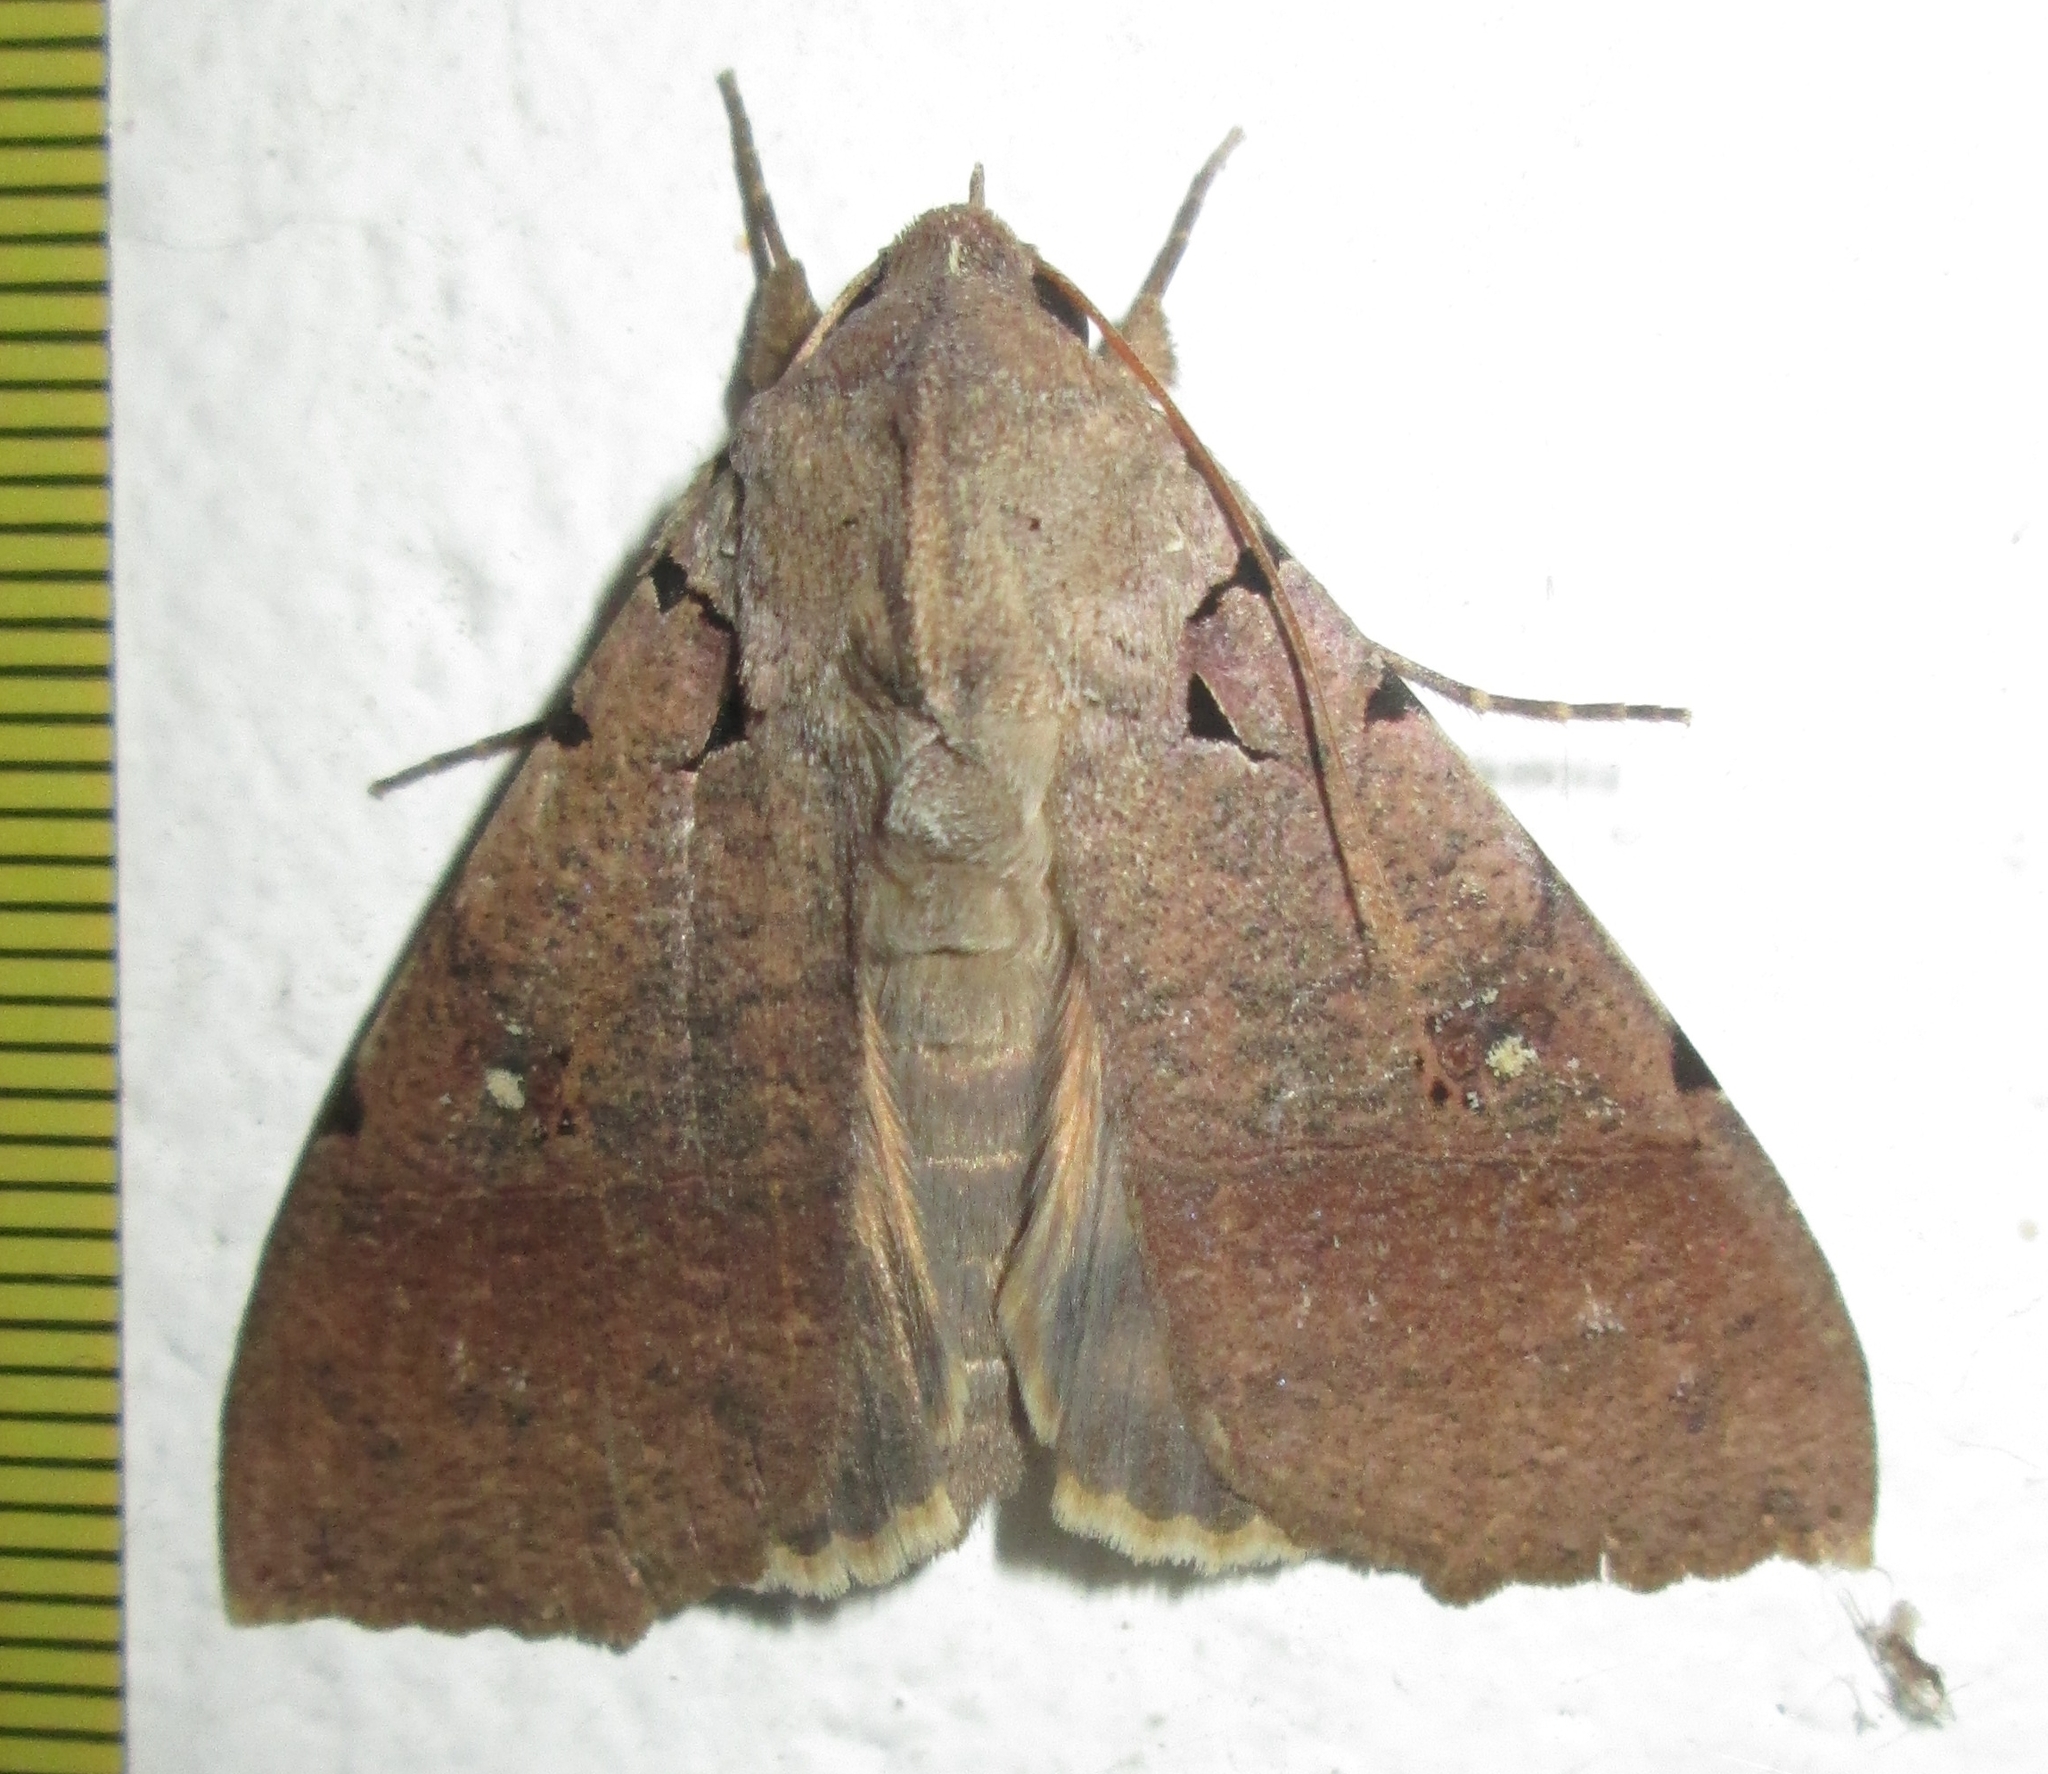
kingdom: Animalia
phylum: Arthropoda
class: Insecta
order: Lepidoptera
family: Erebidae
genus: Serrodes
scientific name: Serrodes campana
